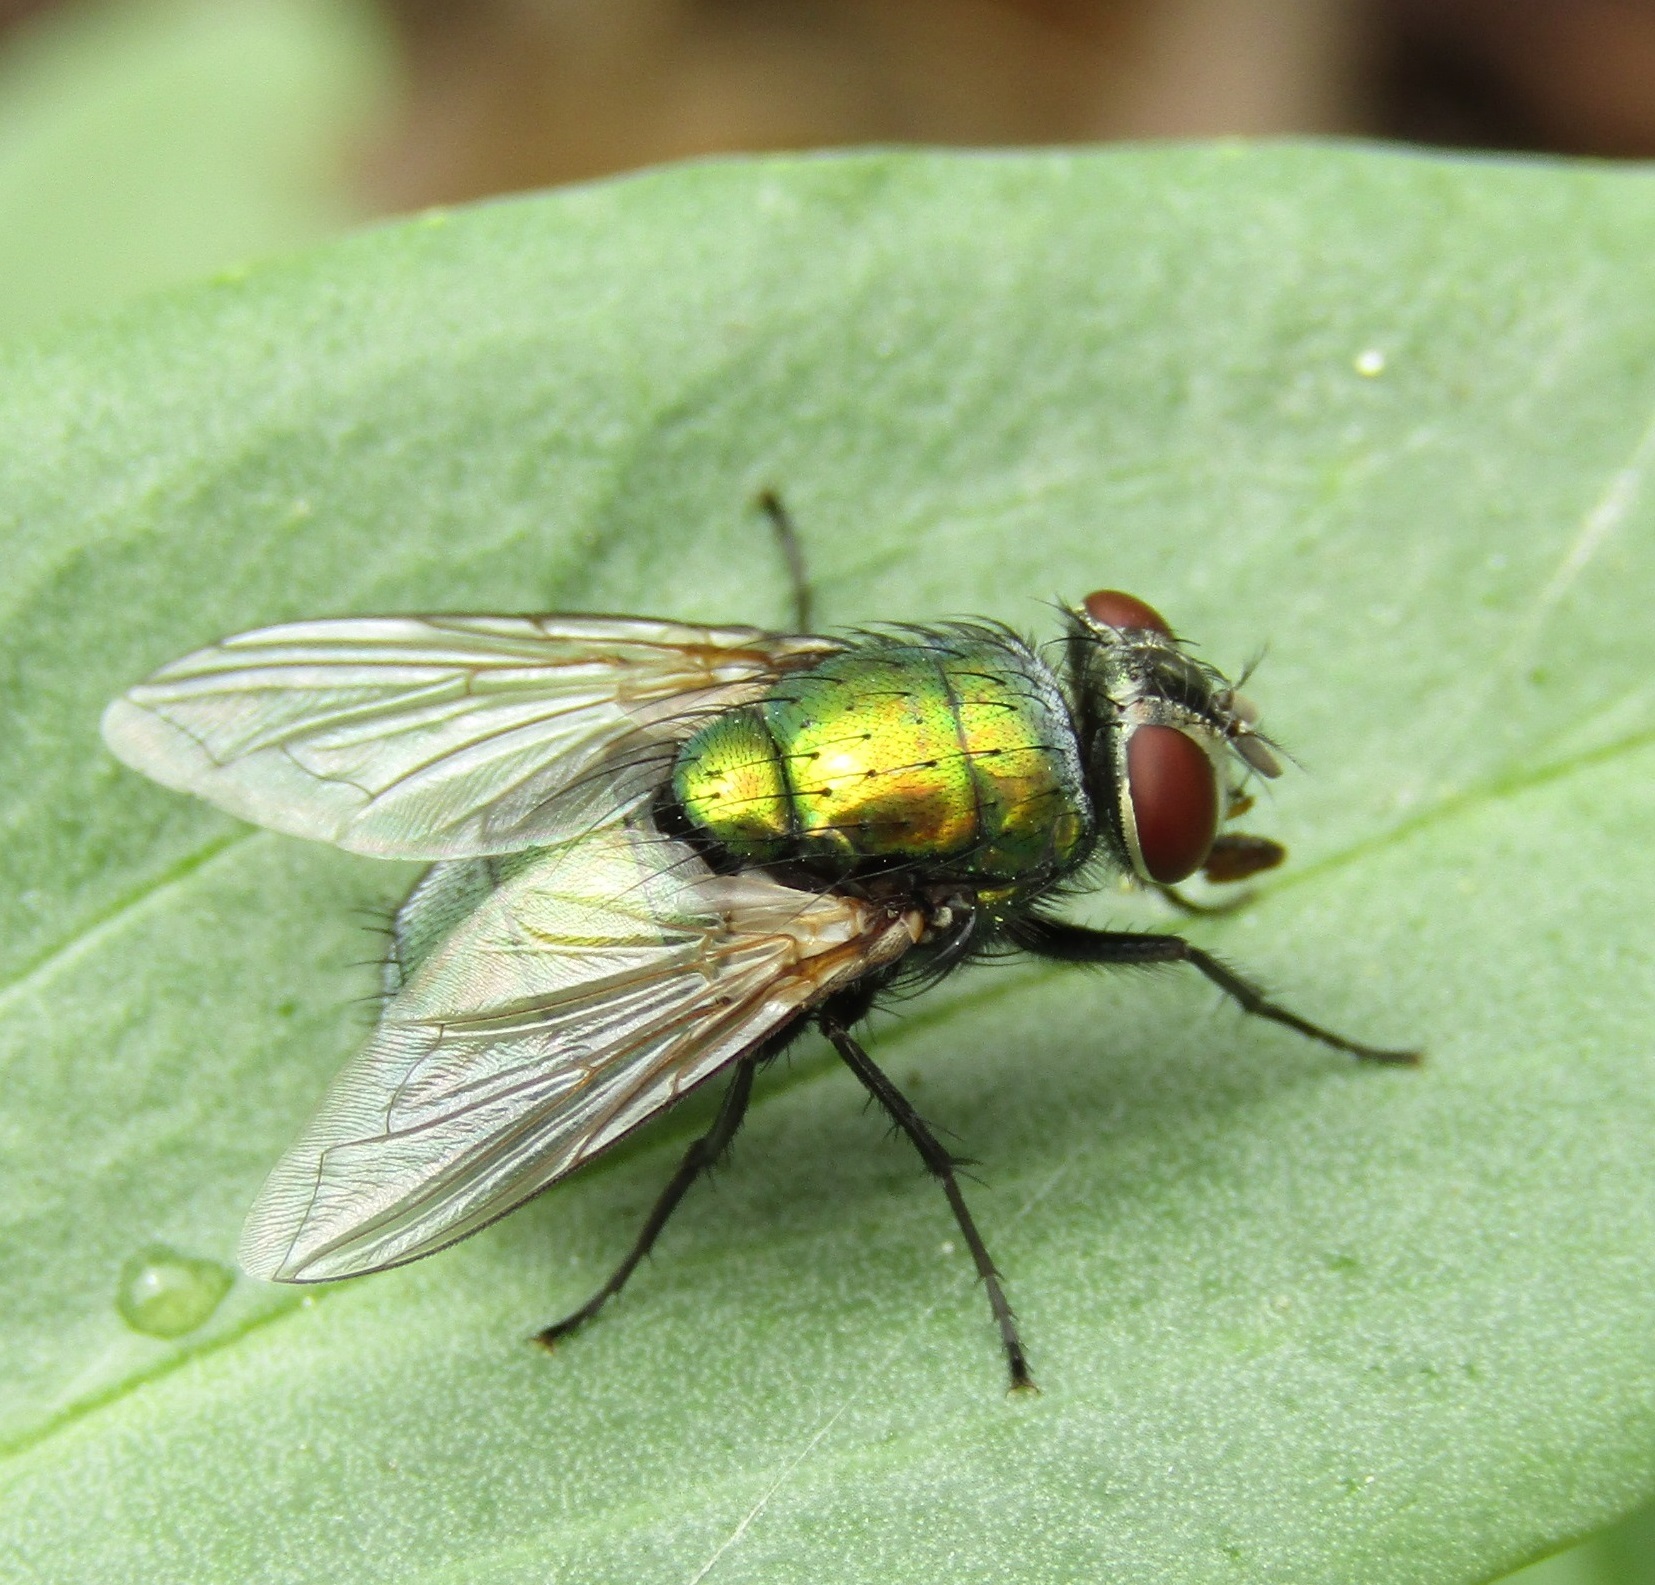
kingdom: Animalia
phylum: Arthropoda
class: Insecta
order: Diptera
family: Calliphoridae
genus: Lucilia
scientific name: Lucilia sericata
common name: Blow fly
